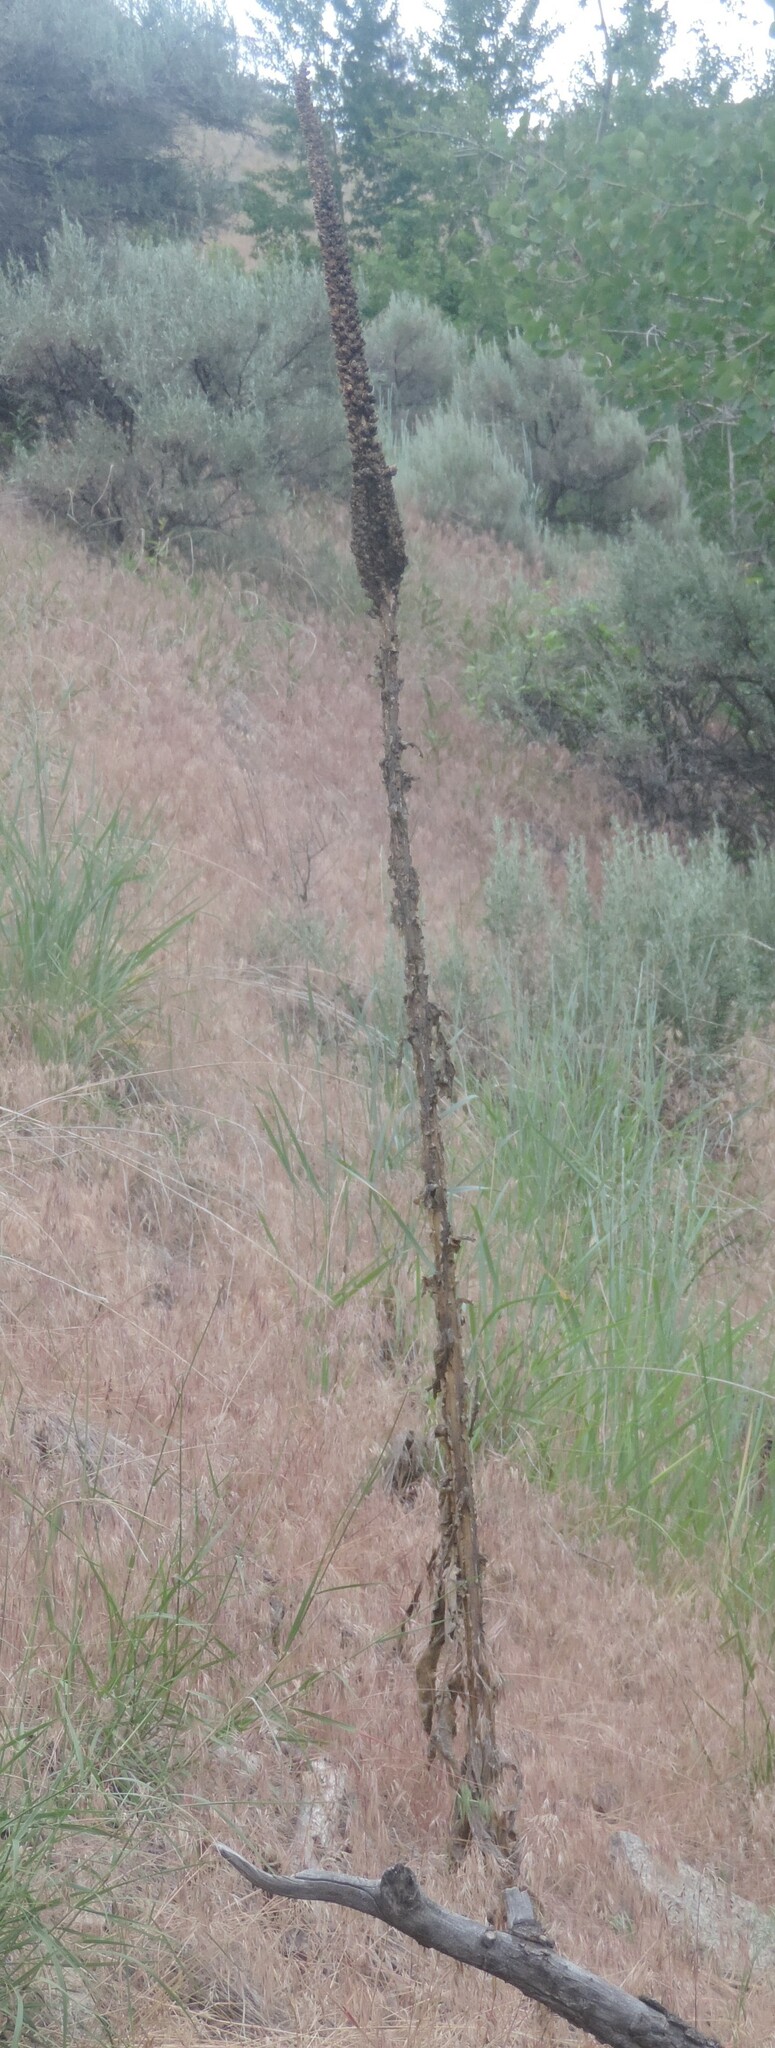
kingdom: Plantae
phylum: Tracheophyta
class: Magnoliopsida
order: Lamiales
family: Scrophulariaceae
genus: Verbascum
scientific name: Verbascum thapsus
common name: Common mullein
